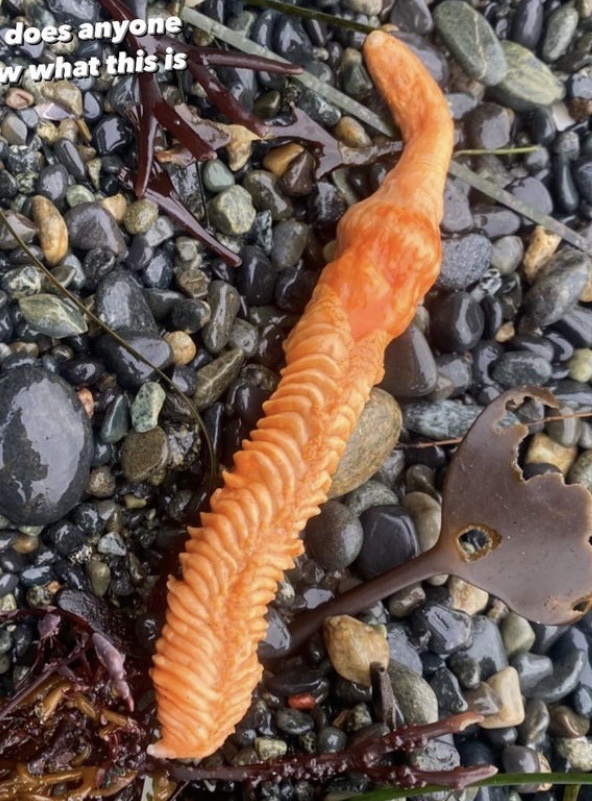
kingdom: Animalia
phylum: Cnidaria
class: Anthozoa
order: Scleralcyonacea
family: Pennatulidae
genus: Ptilosarcus
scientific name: Ptilosarcus gurneyi
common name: Gurney's sea pen
